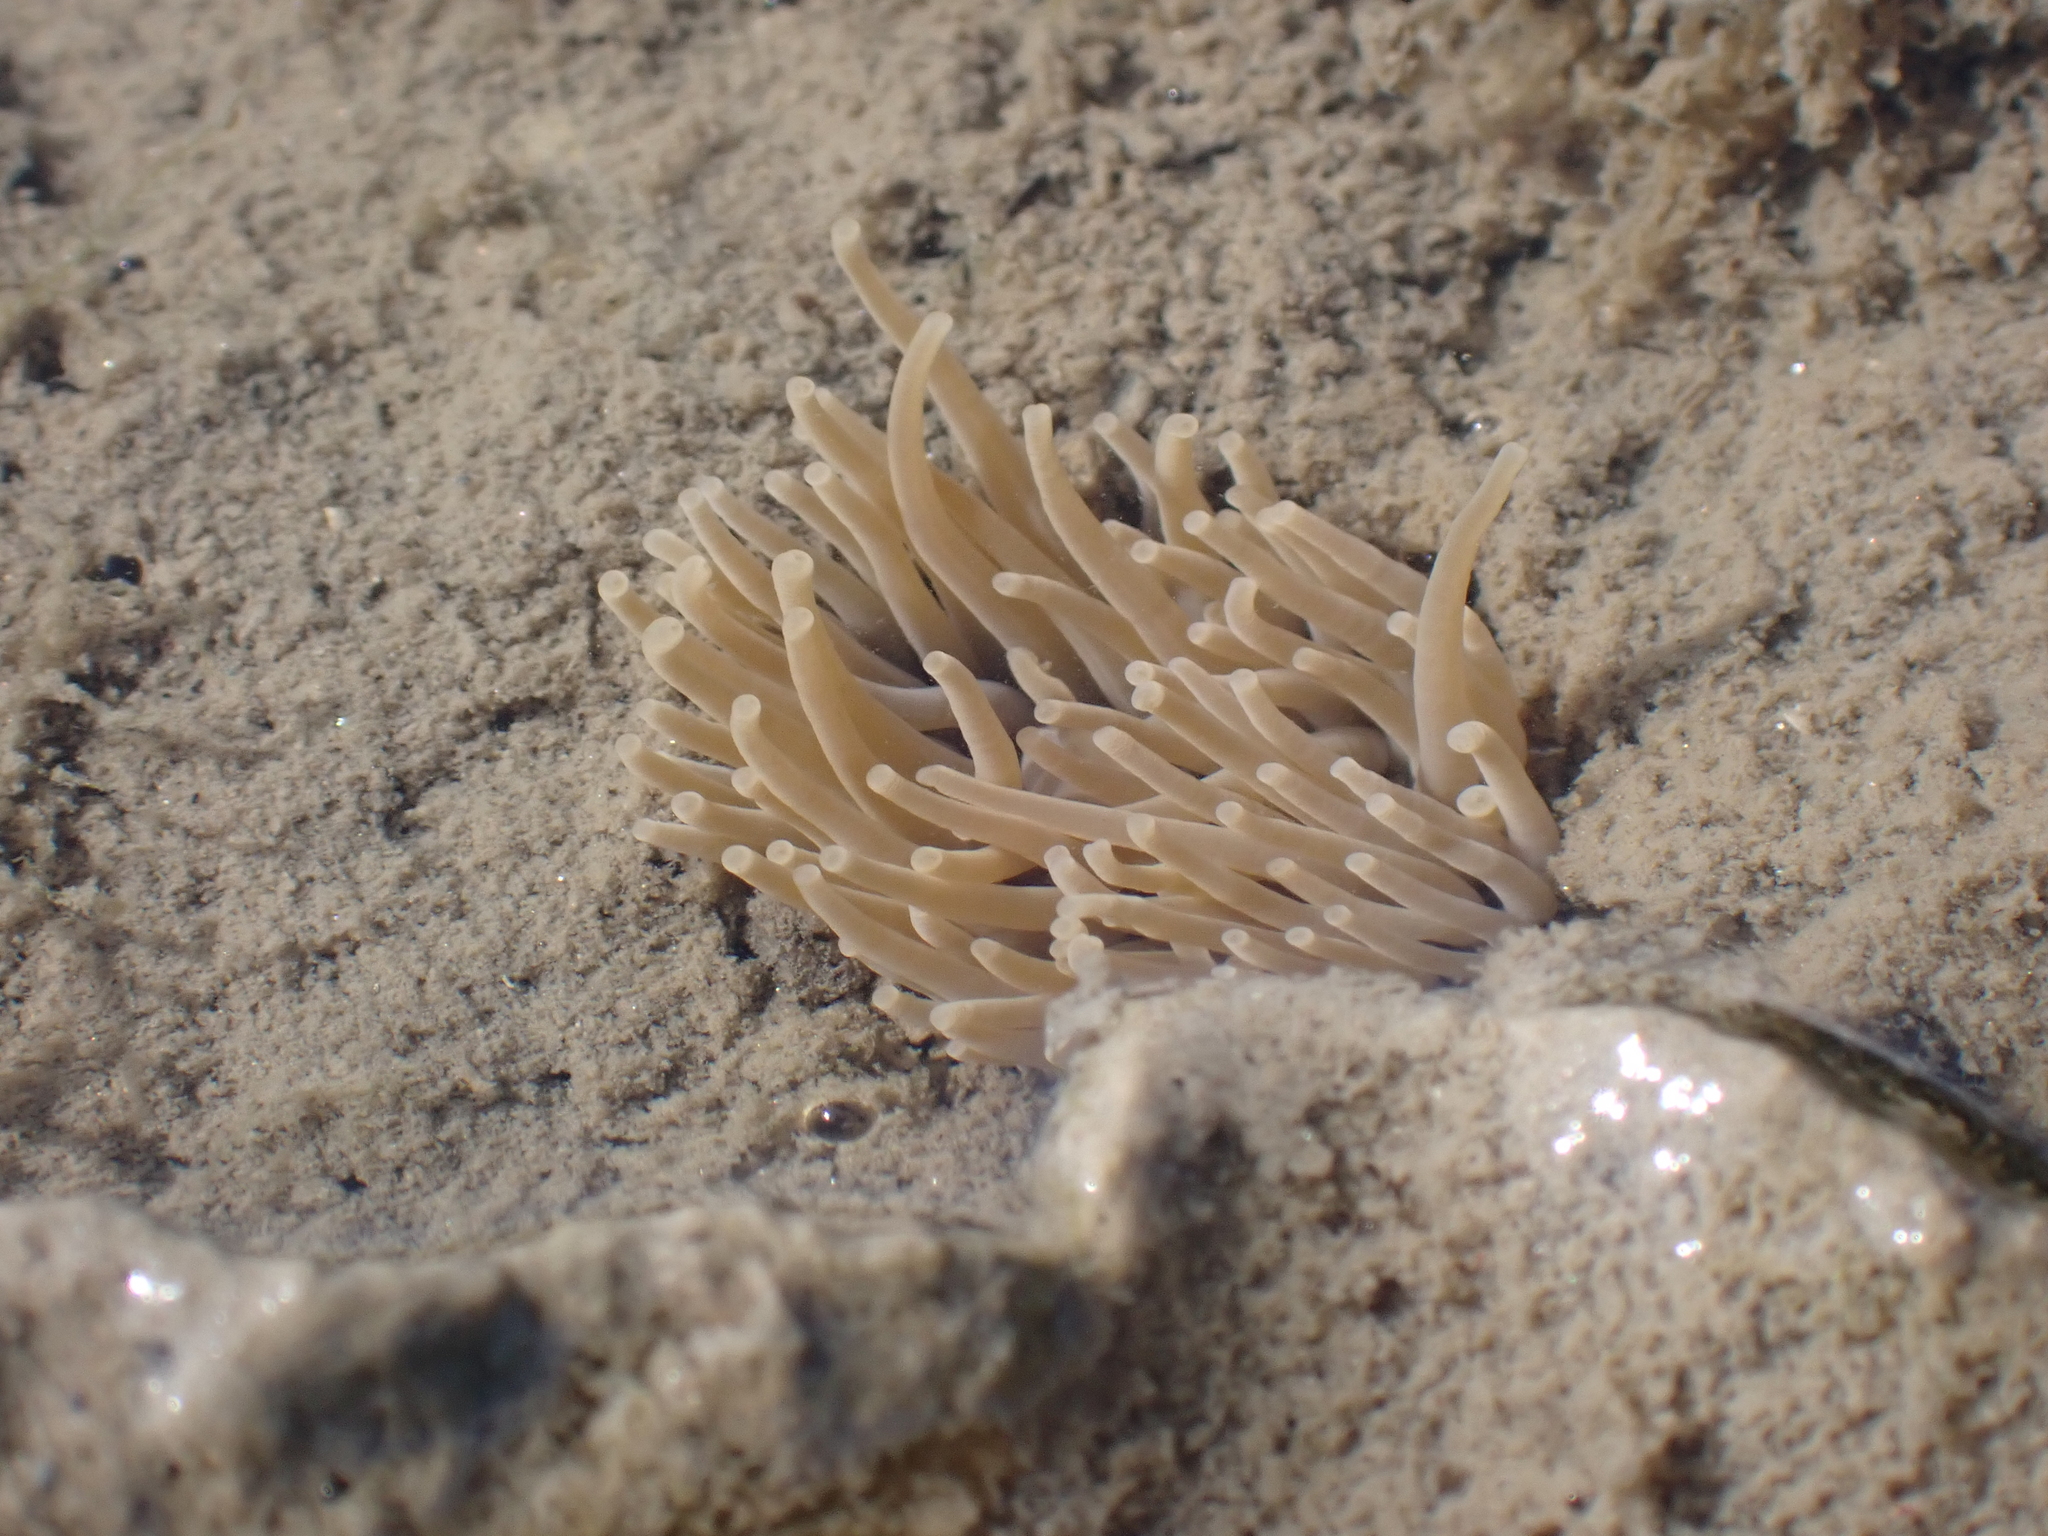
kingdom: Animalia
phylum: Cnidaria
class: Anthozoa
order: Actiniaria
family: Actiniidae
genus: Anemonia
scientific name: Anemonia viridis
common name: Snakelocks anemone
